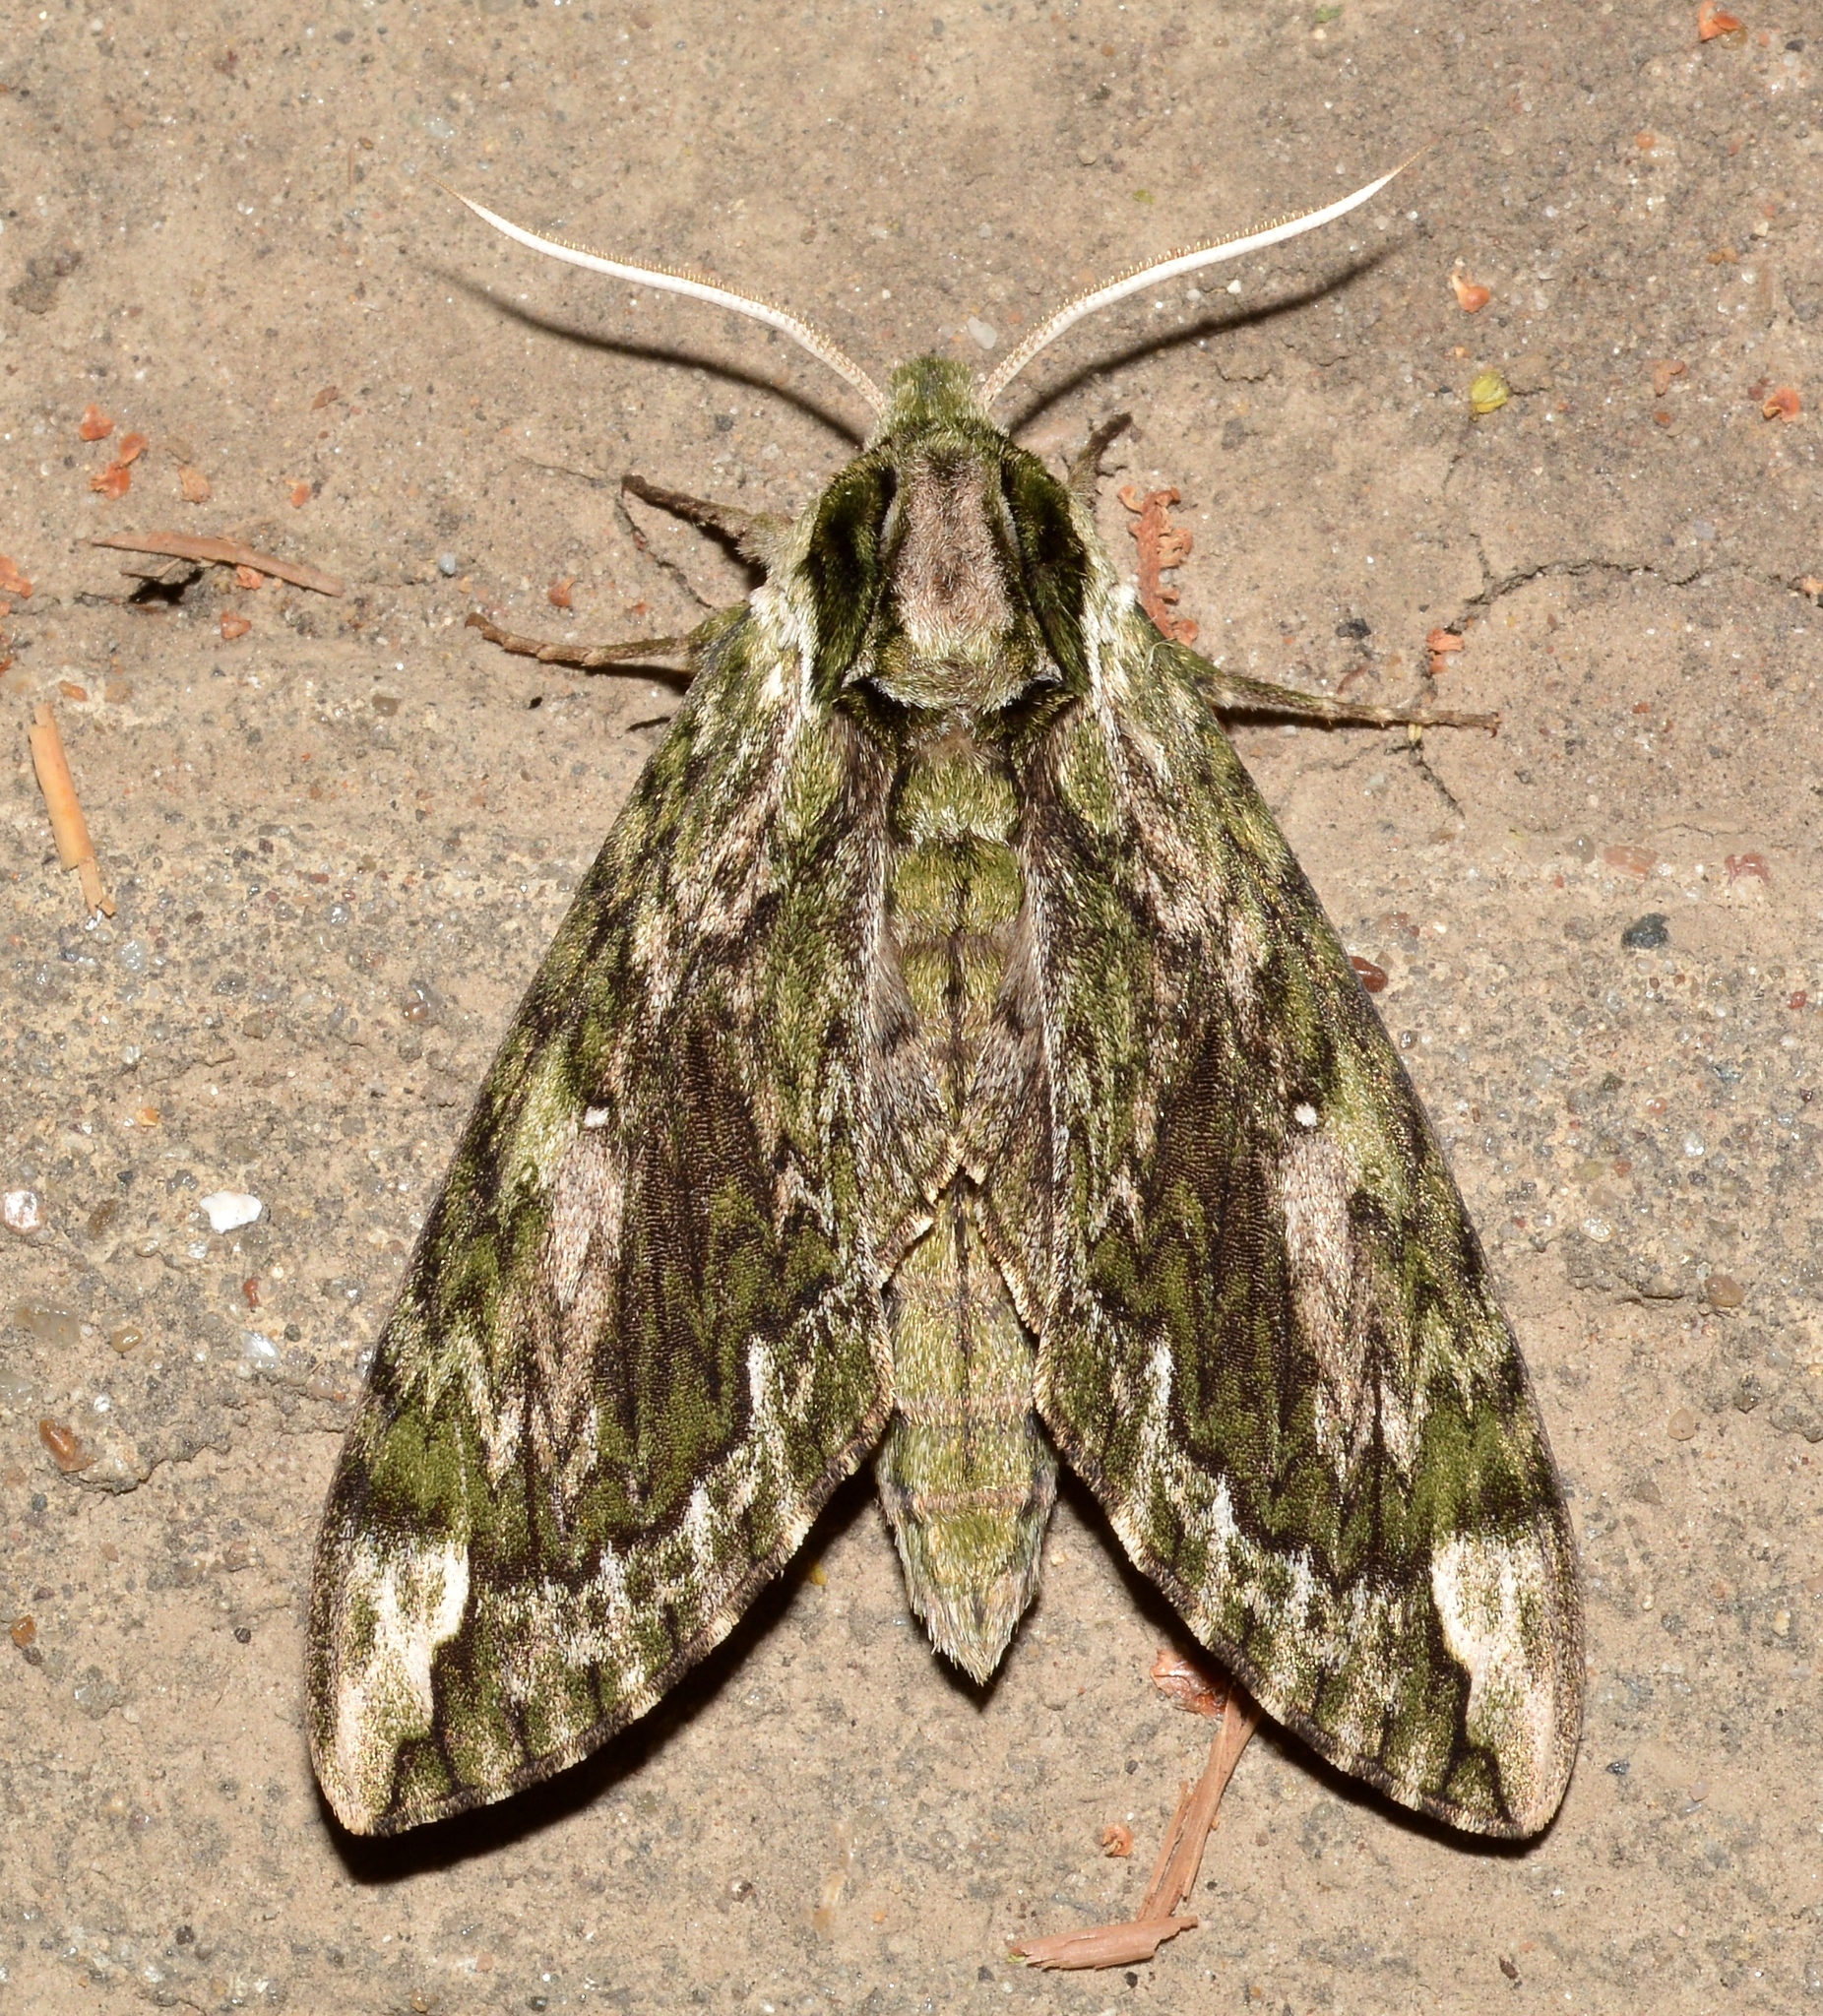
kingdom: Animalia
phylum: Arthropoda
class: Insecta
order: Lepidoptera
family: Sphingidae
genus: Ceratomia
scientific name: Ceratomia hageni
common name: Hagen's sphinx
